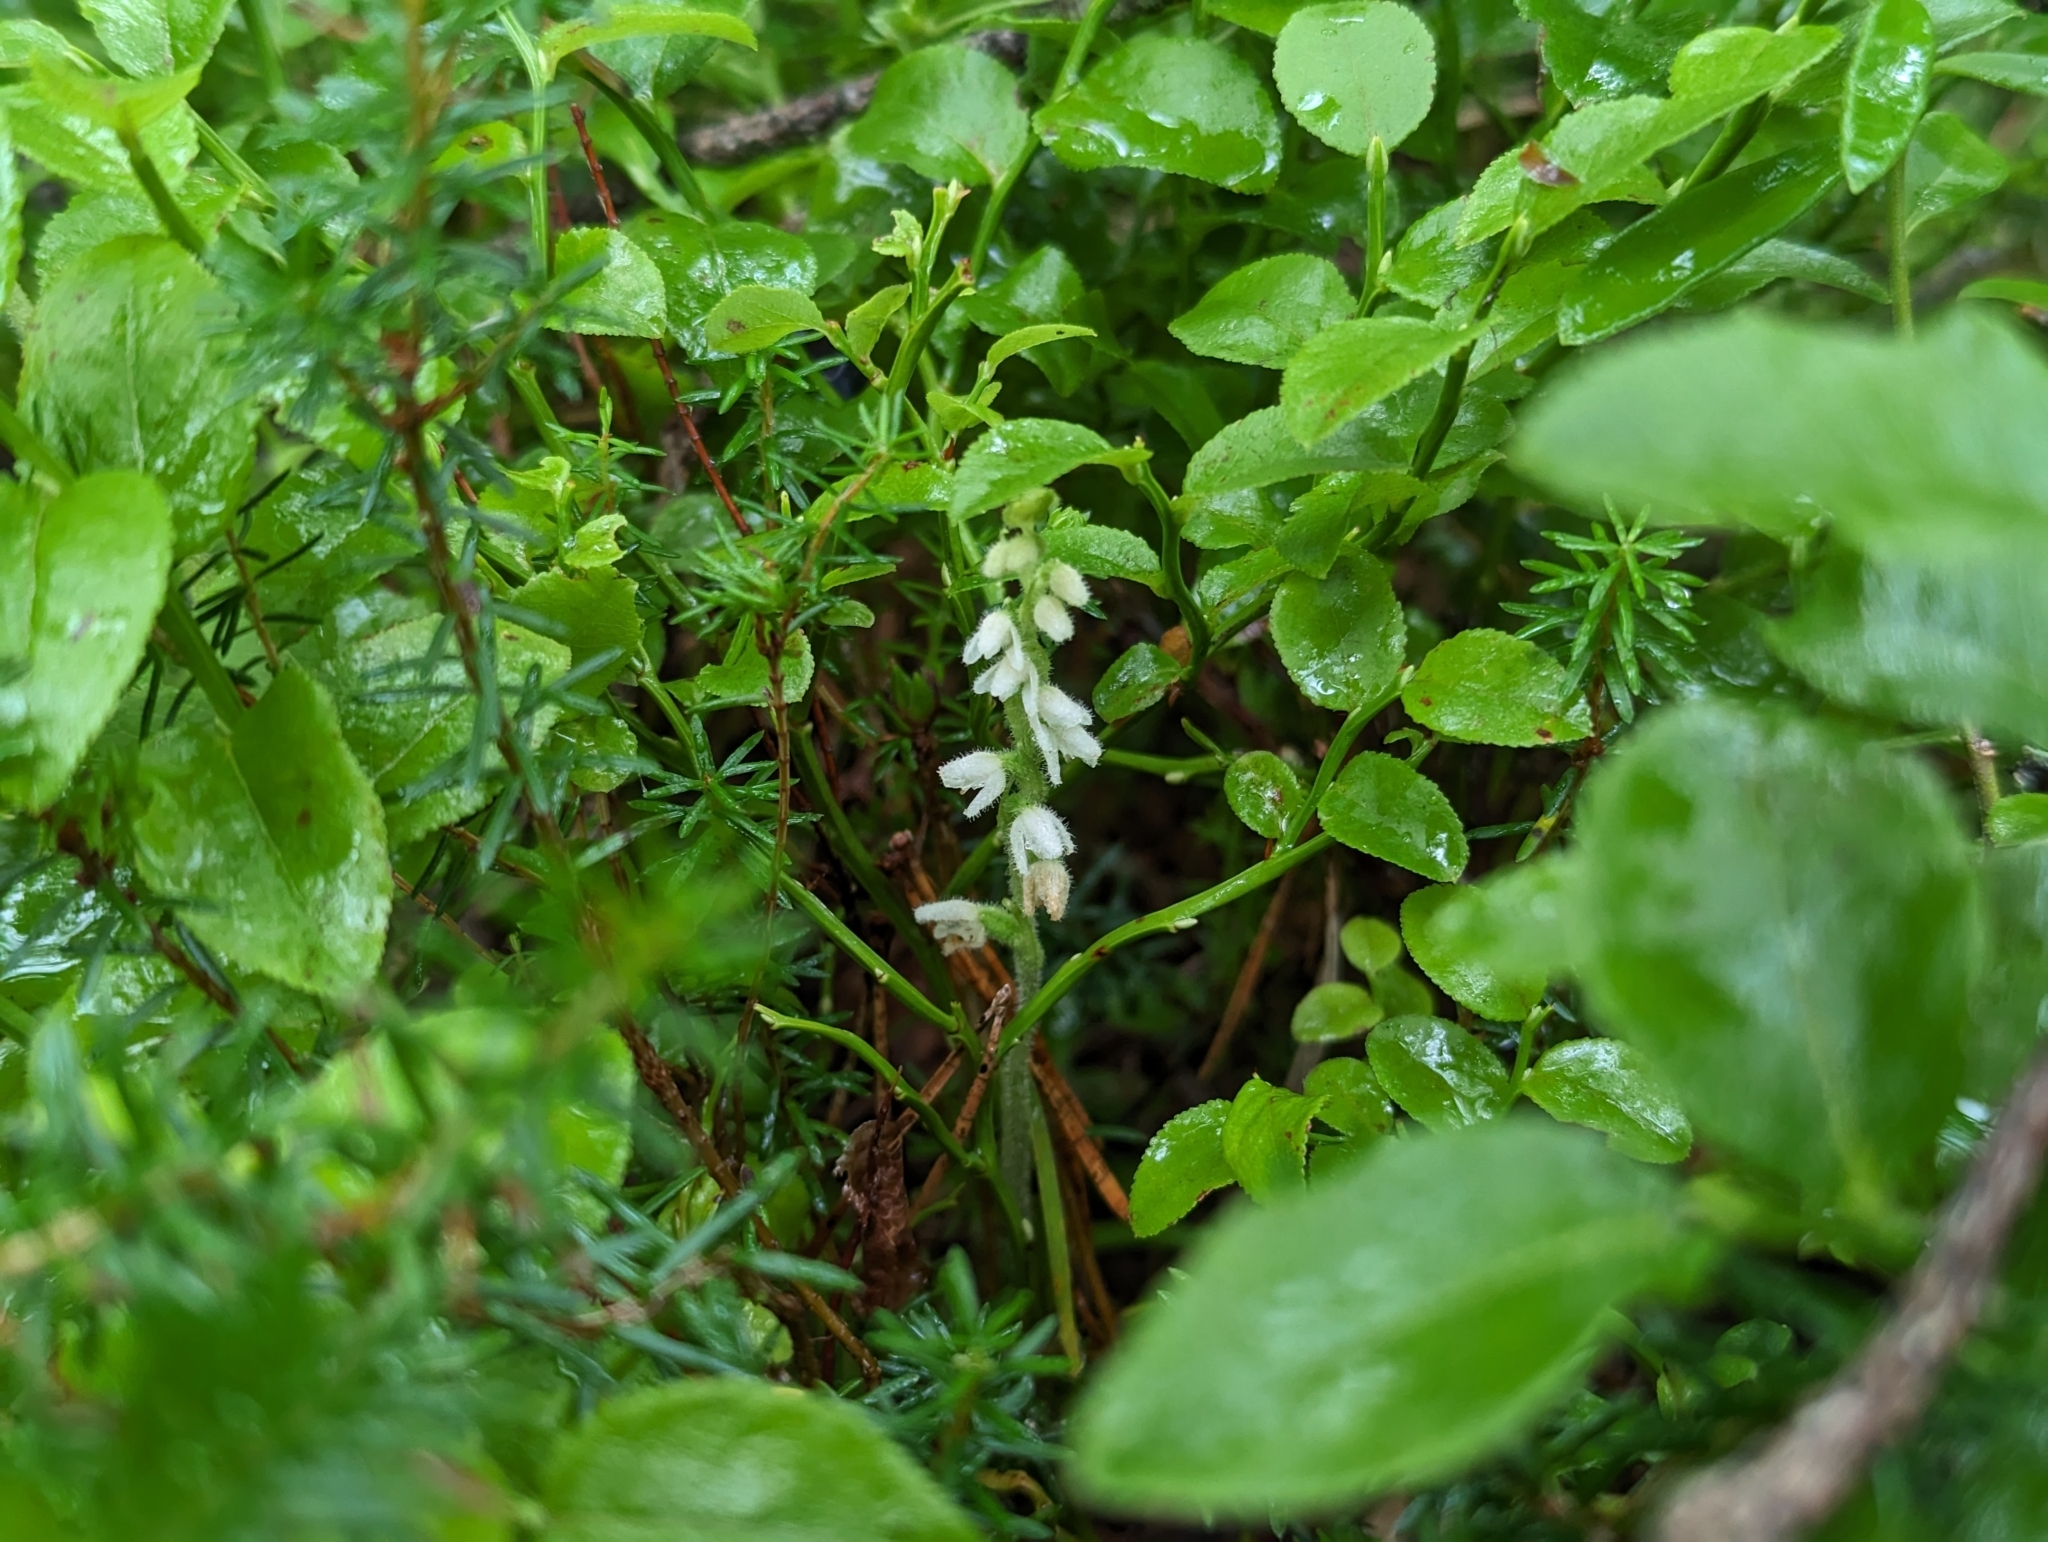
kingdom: Plantae
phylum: Tracheophyta
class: Liliopsida
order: Asparagales
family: Orchidaceae
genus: Goodyera
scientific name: Goodyera repens
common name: Creeping lady's-tresses
